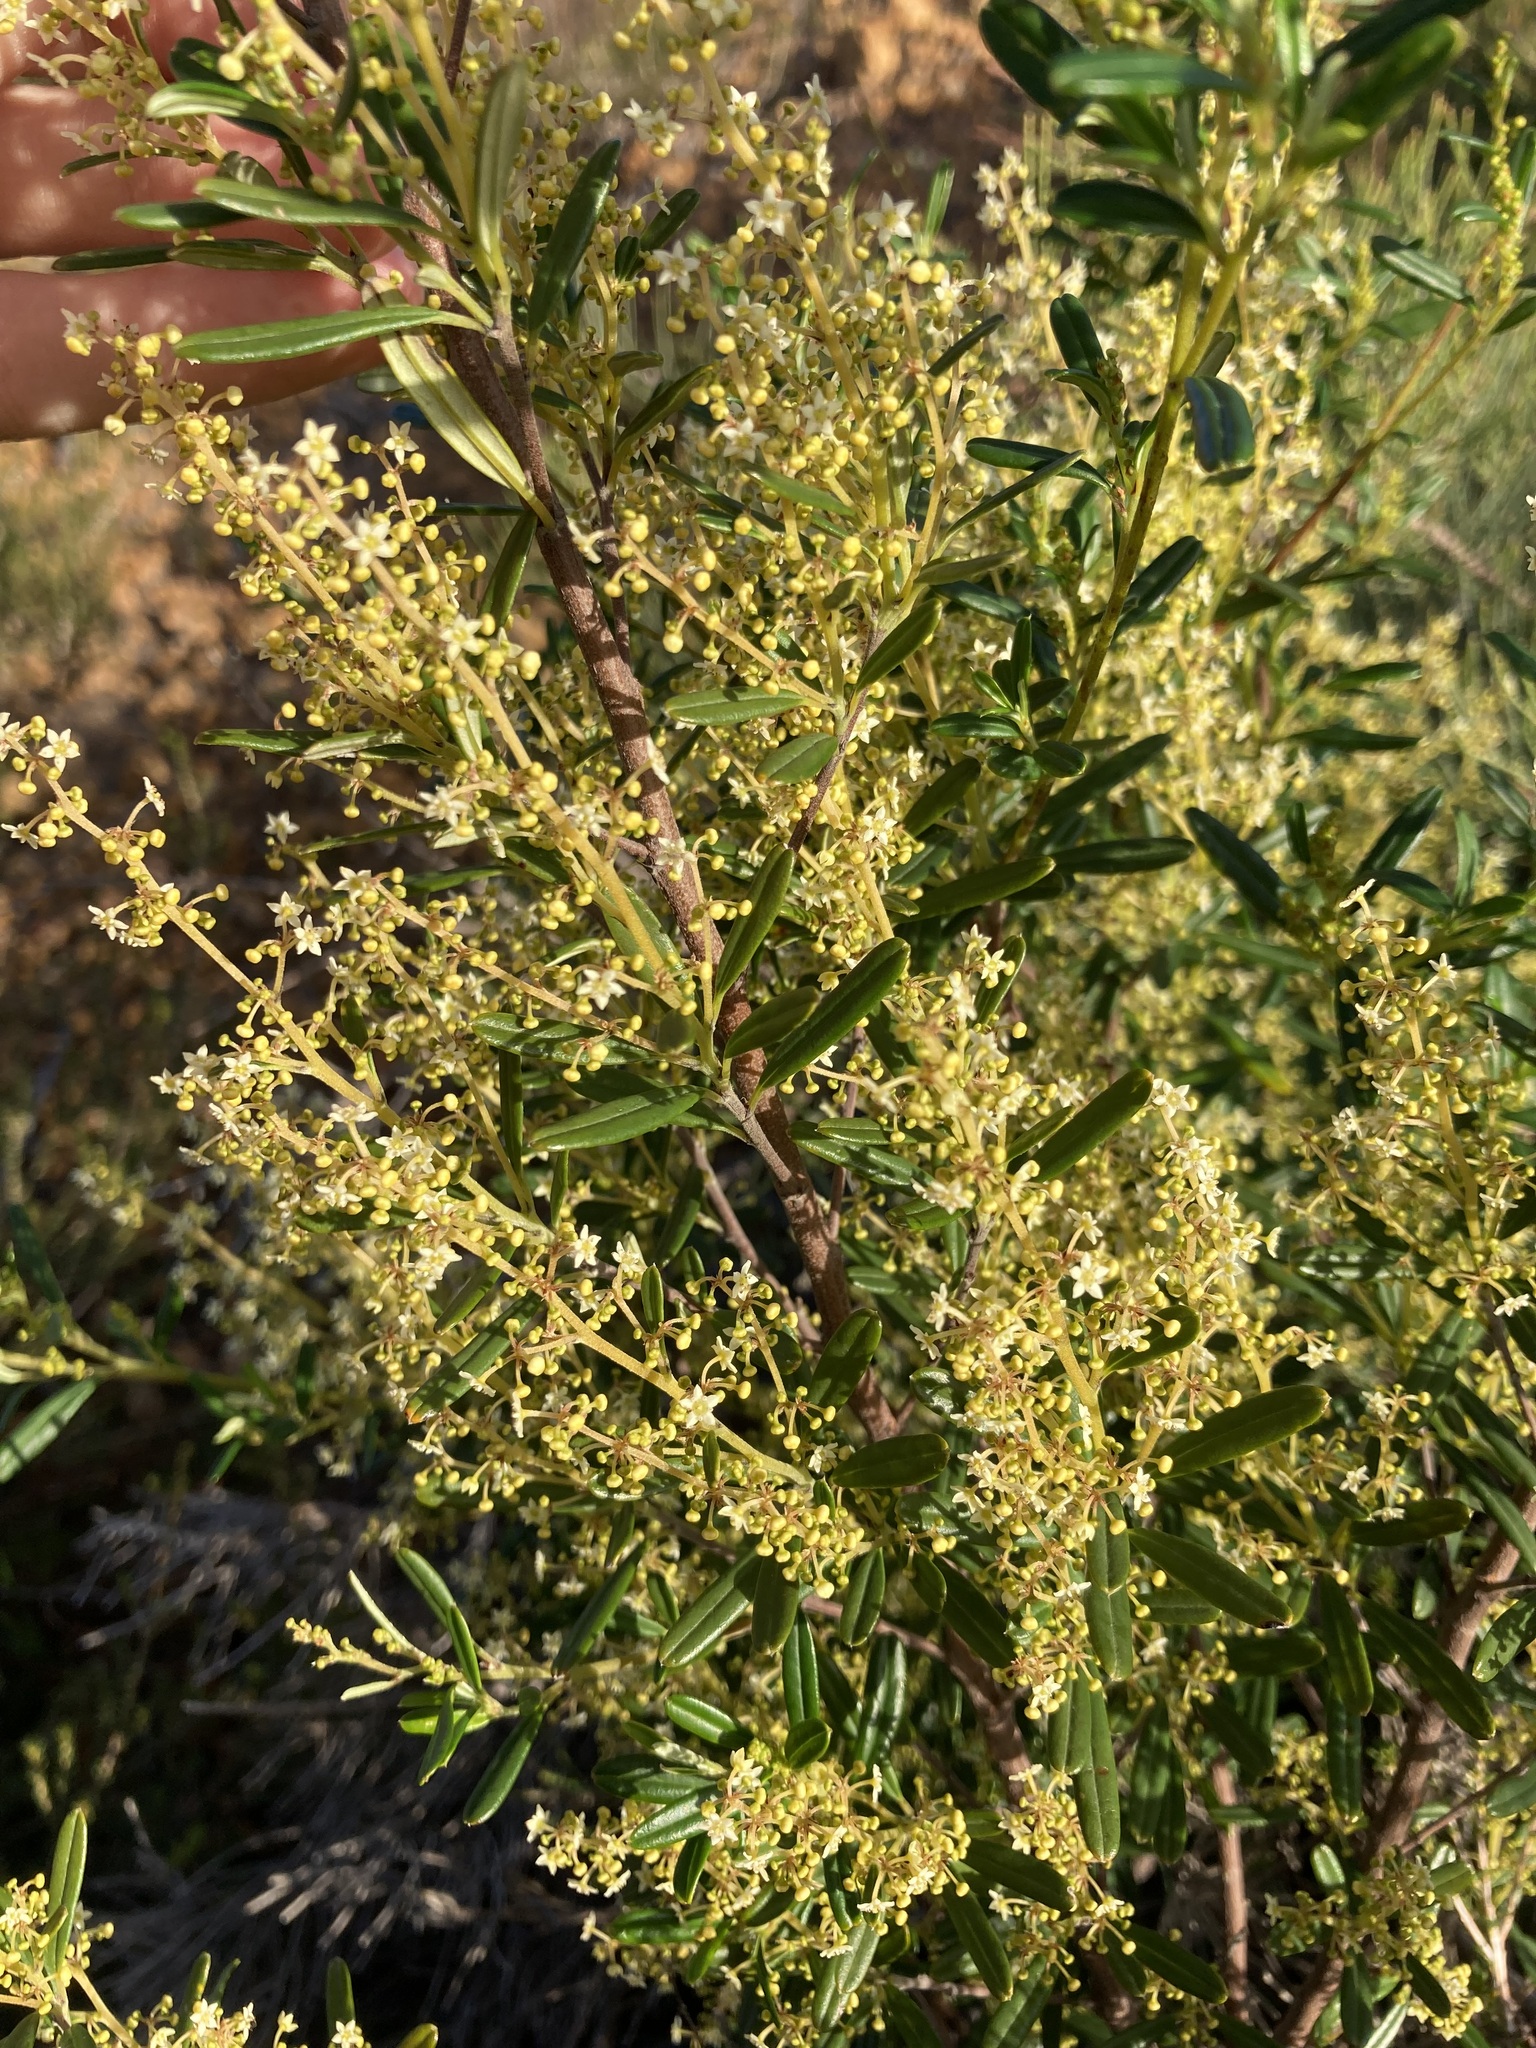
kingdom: Plantae
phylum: Tracheophyta
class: Magnoliopsida
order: Rosales
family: Rhamnaceae
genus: Trymalium
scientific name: Trymalium ledifolium
